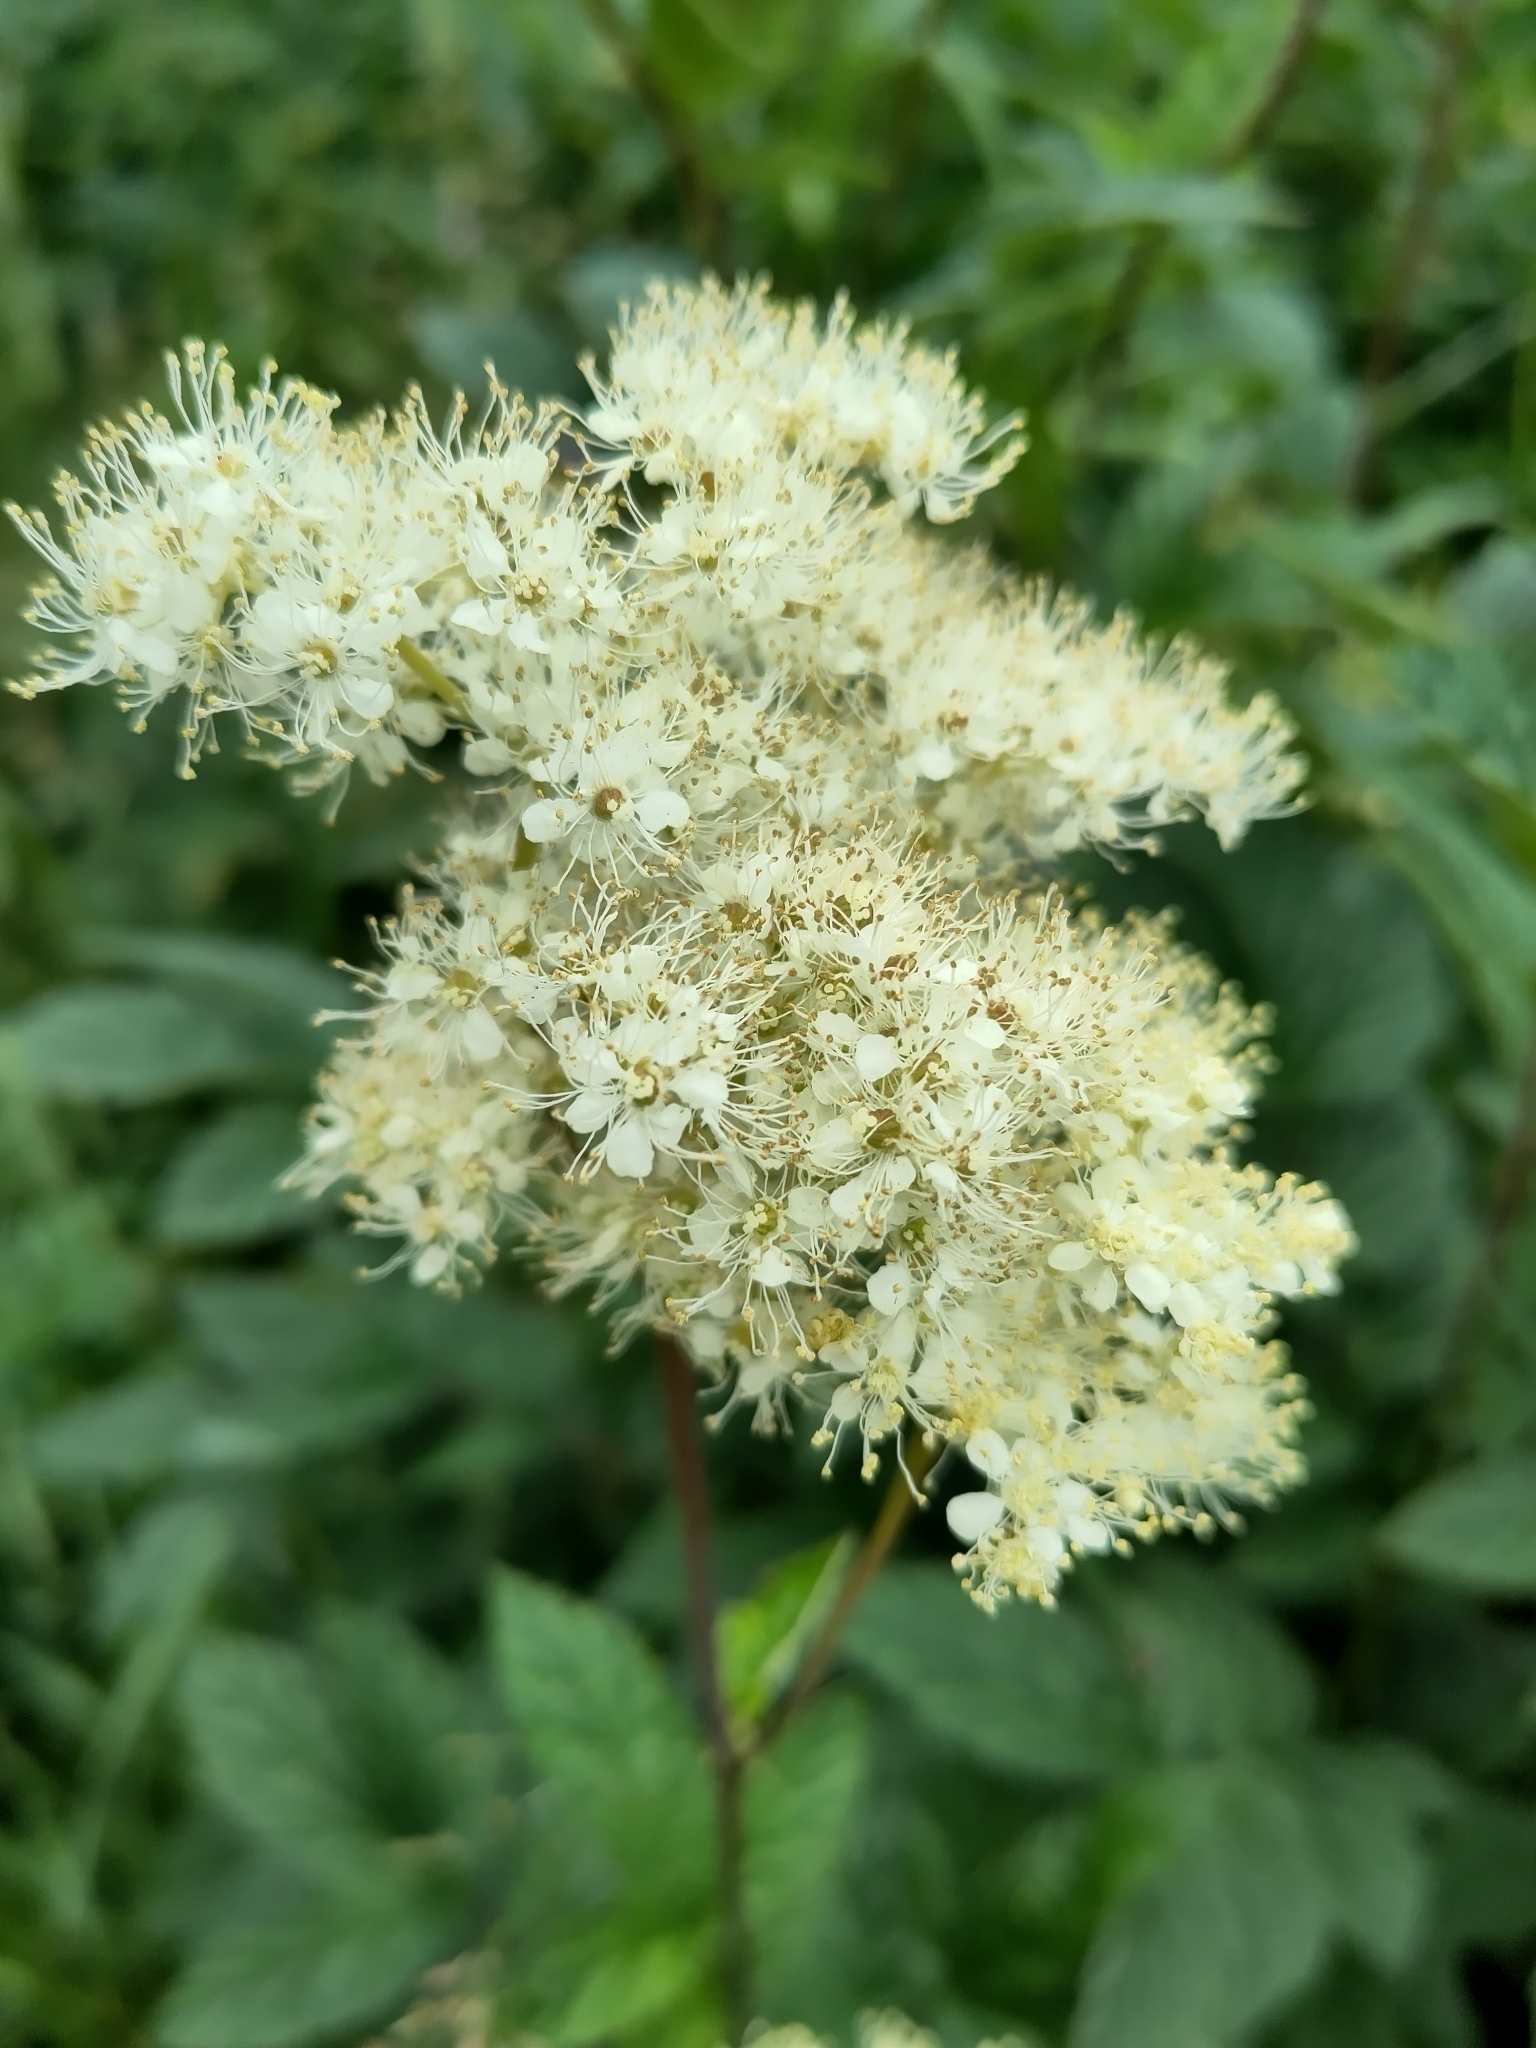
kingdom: Plantae
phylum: Tracheophyta
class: Magnoliopsida
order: Rosales
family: Rosaceae
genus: Filipendula
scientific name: Filipendula ulmaria
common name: Meadowsweet
